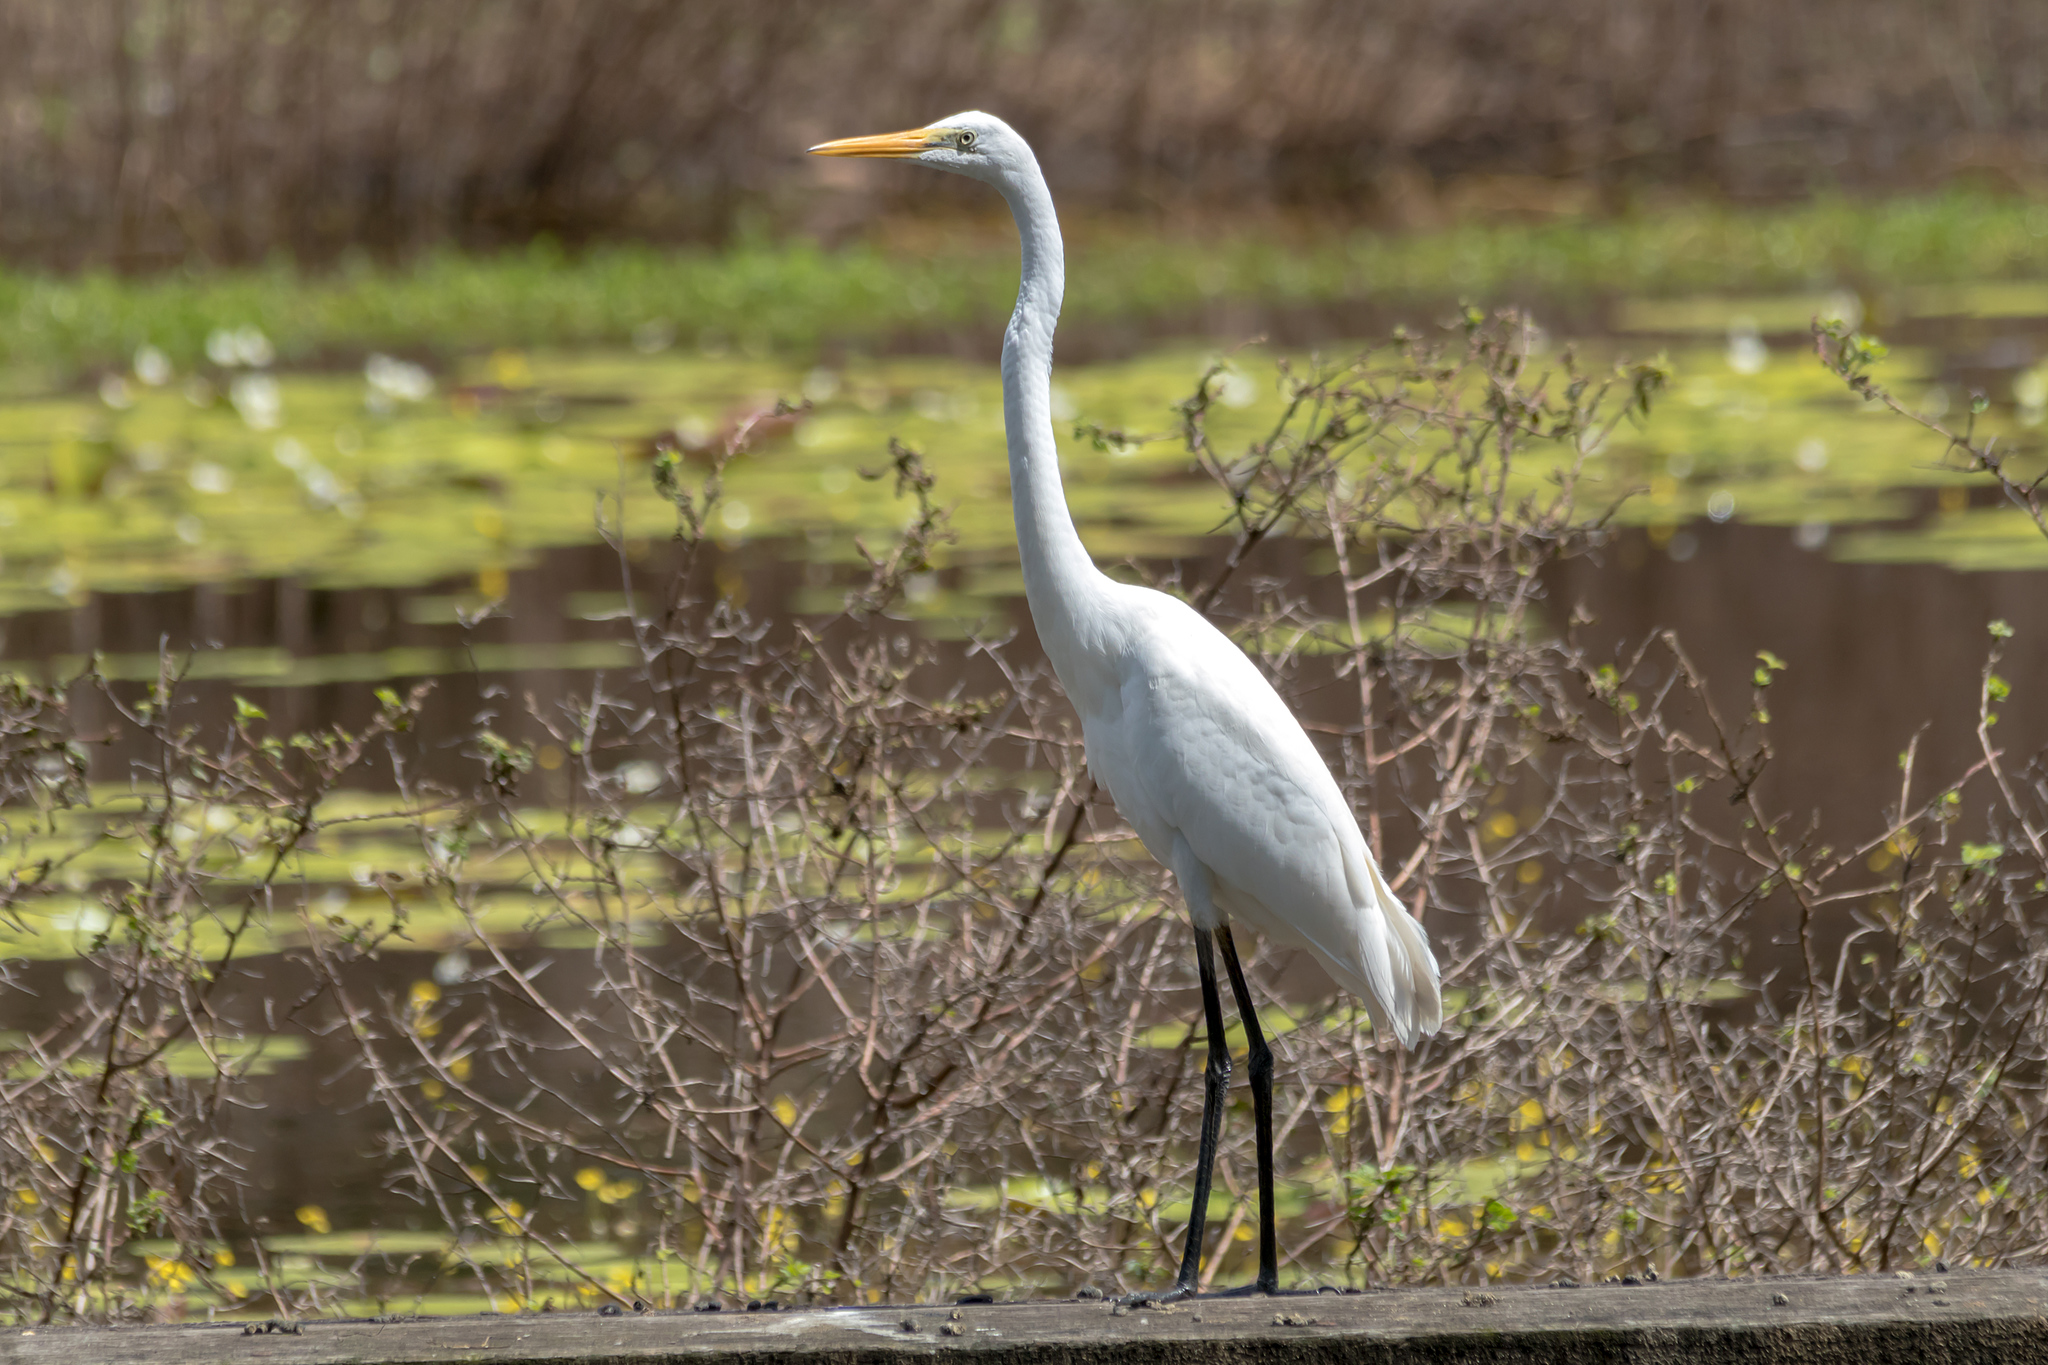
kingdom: Animalia
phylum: Chordata
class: Aves
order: Pelecaniformes
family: Ardeidae
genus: Ardea
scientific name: Ardea alba
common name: Great egret
